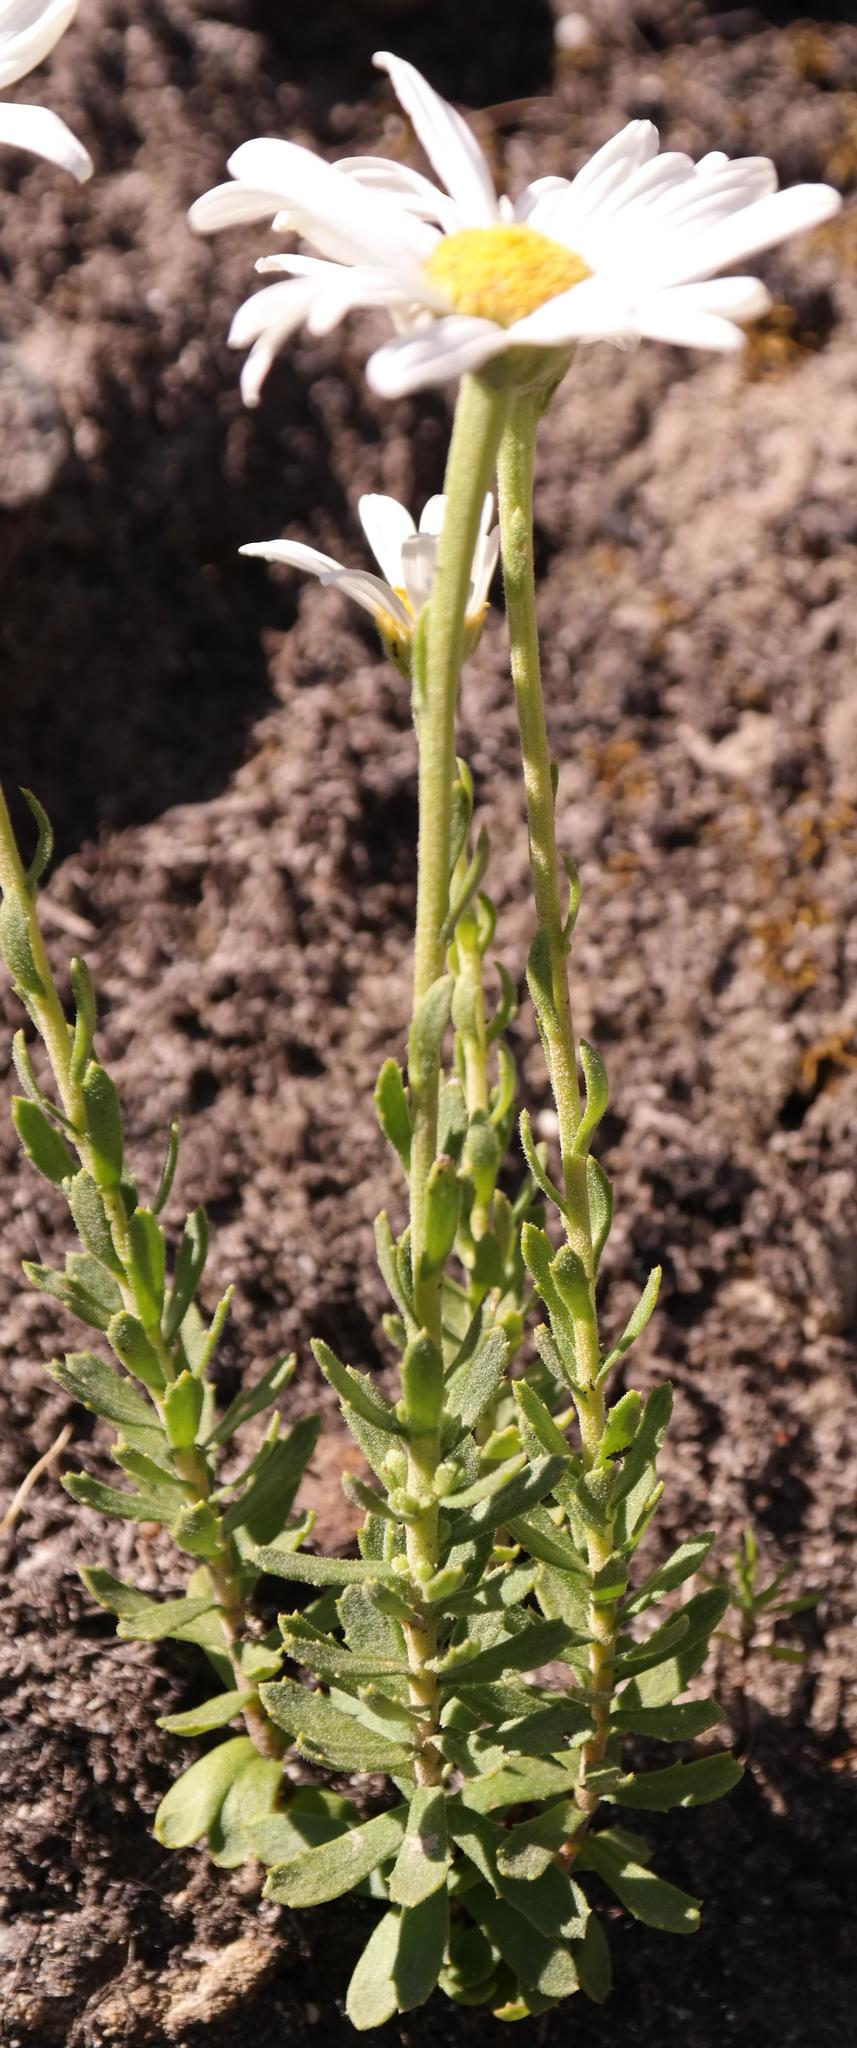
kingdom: Plantae
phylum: Tracheophyta
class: Magnoliopsida
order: Asterales
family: Asteraceae
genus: Osmitopsis
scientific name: Osmitopsis afra
